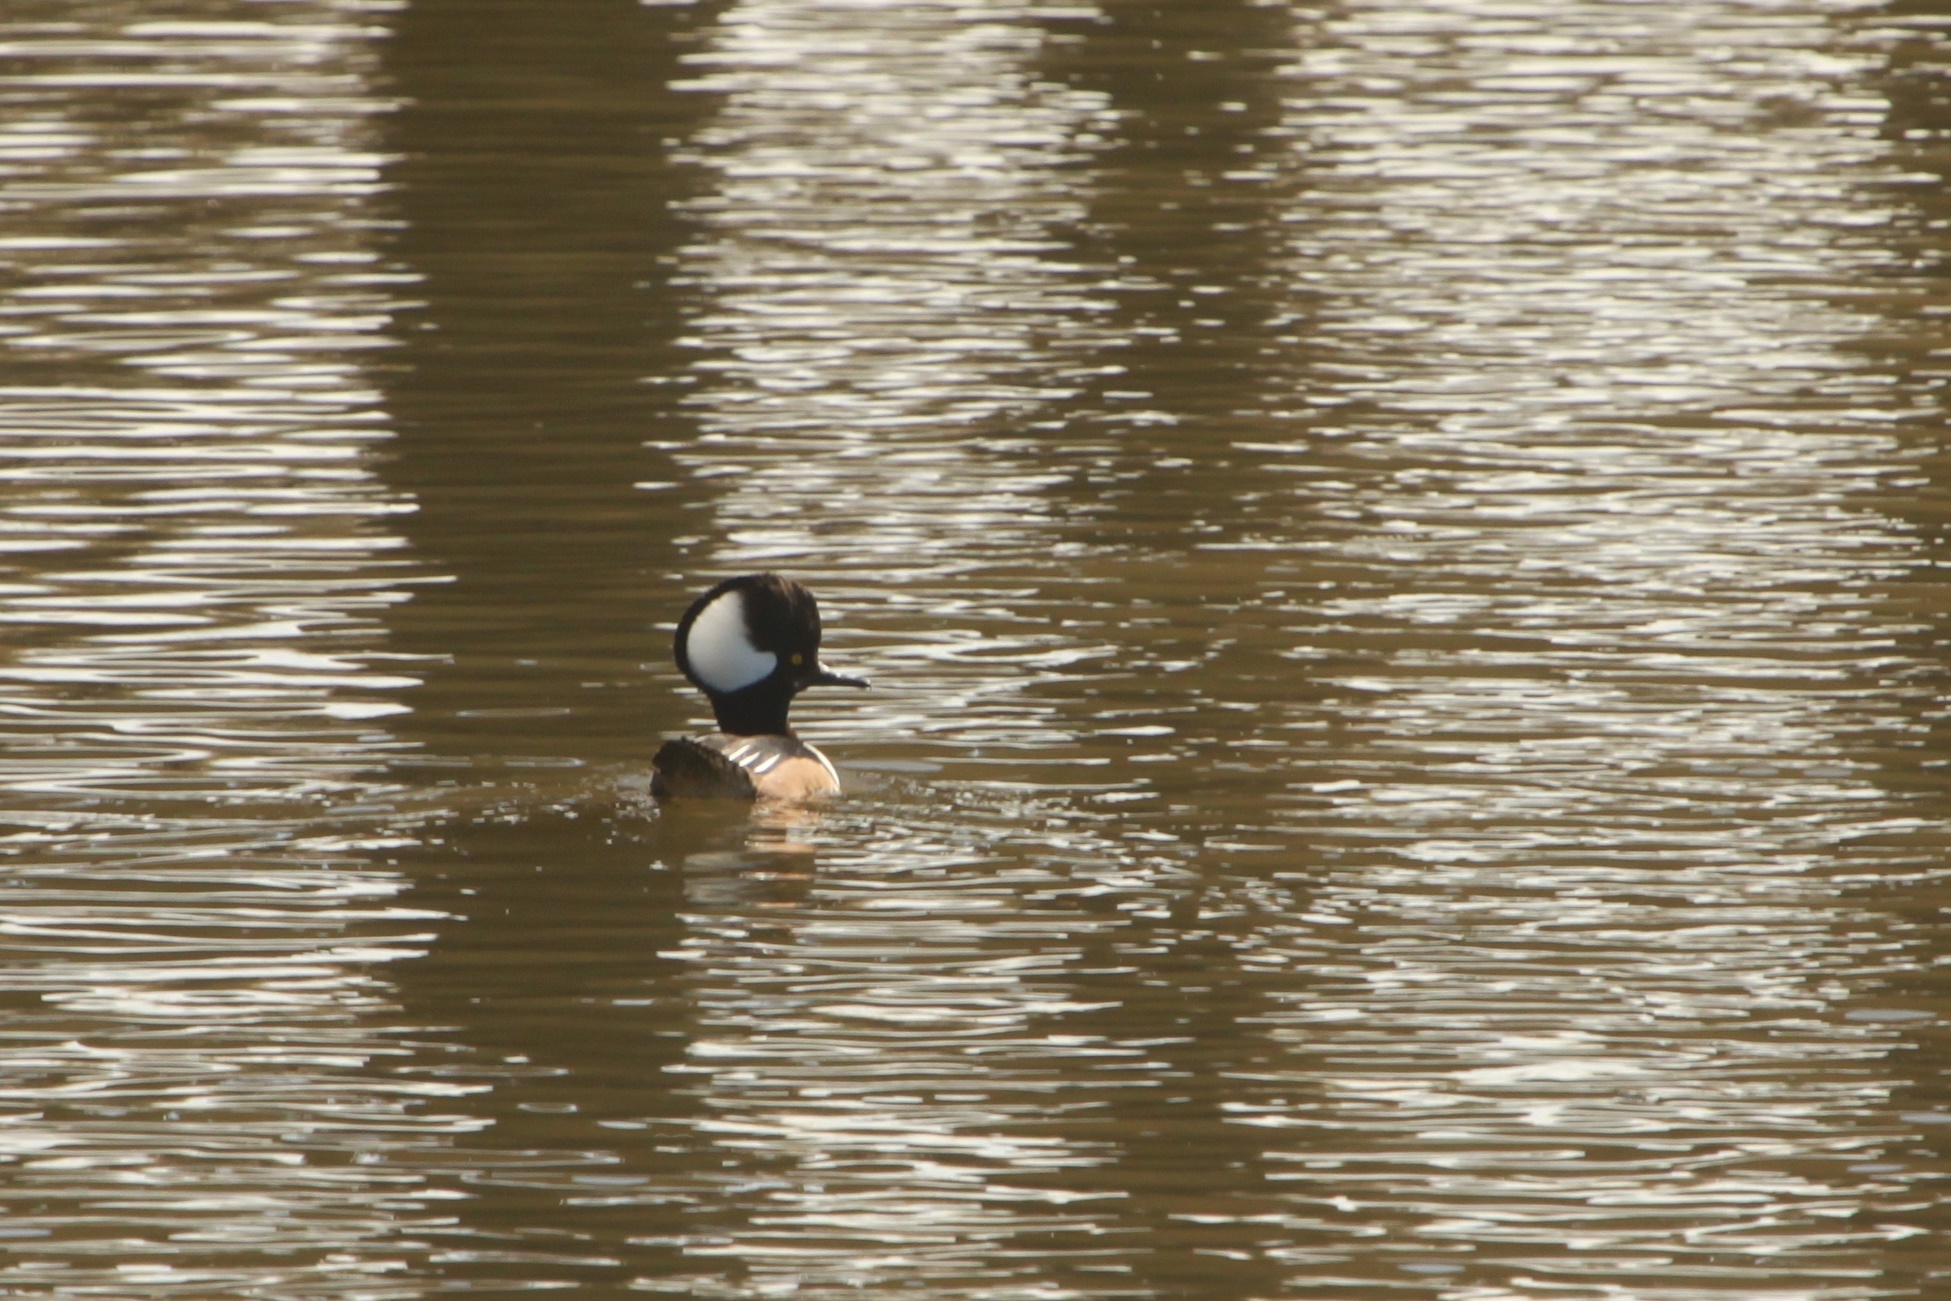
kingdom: Animalia
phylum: Chordata
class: Aves
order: Anseriformes
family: Anatidae
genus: Lophodytes
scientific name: Lophodytes cucullatus
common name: Hooded merganser
